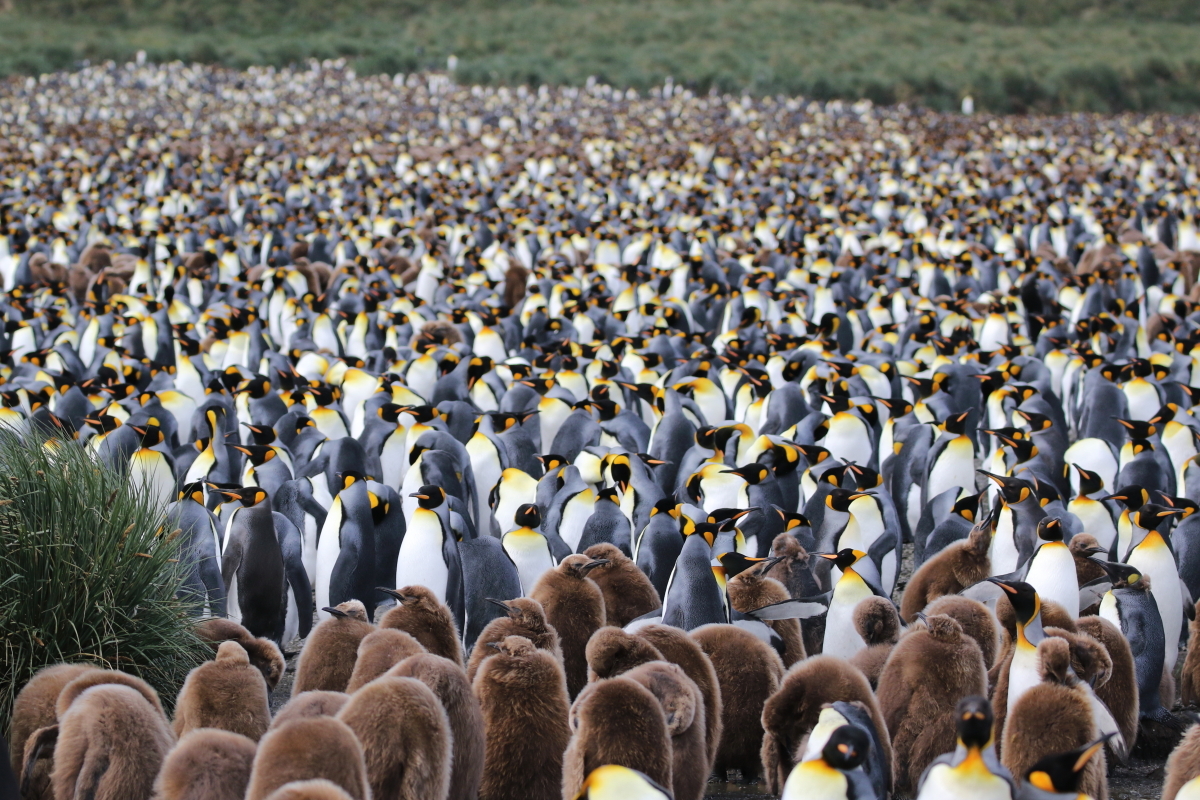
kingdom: Animalia
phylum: Chordata
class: Aves
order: Sphenisciformes
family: Spheniscidae
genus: Aptenodytes
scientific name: Aptenodytes patagonicus
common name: King penguin
